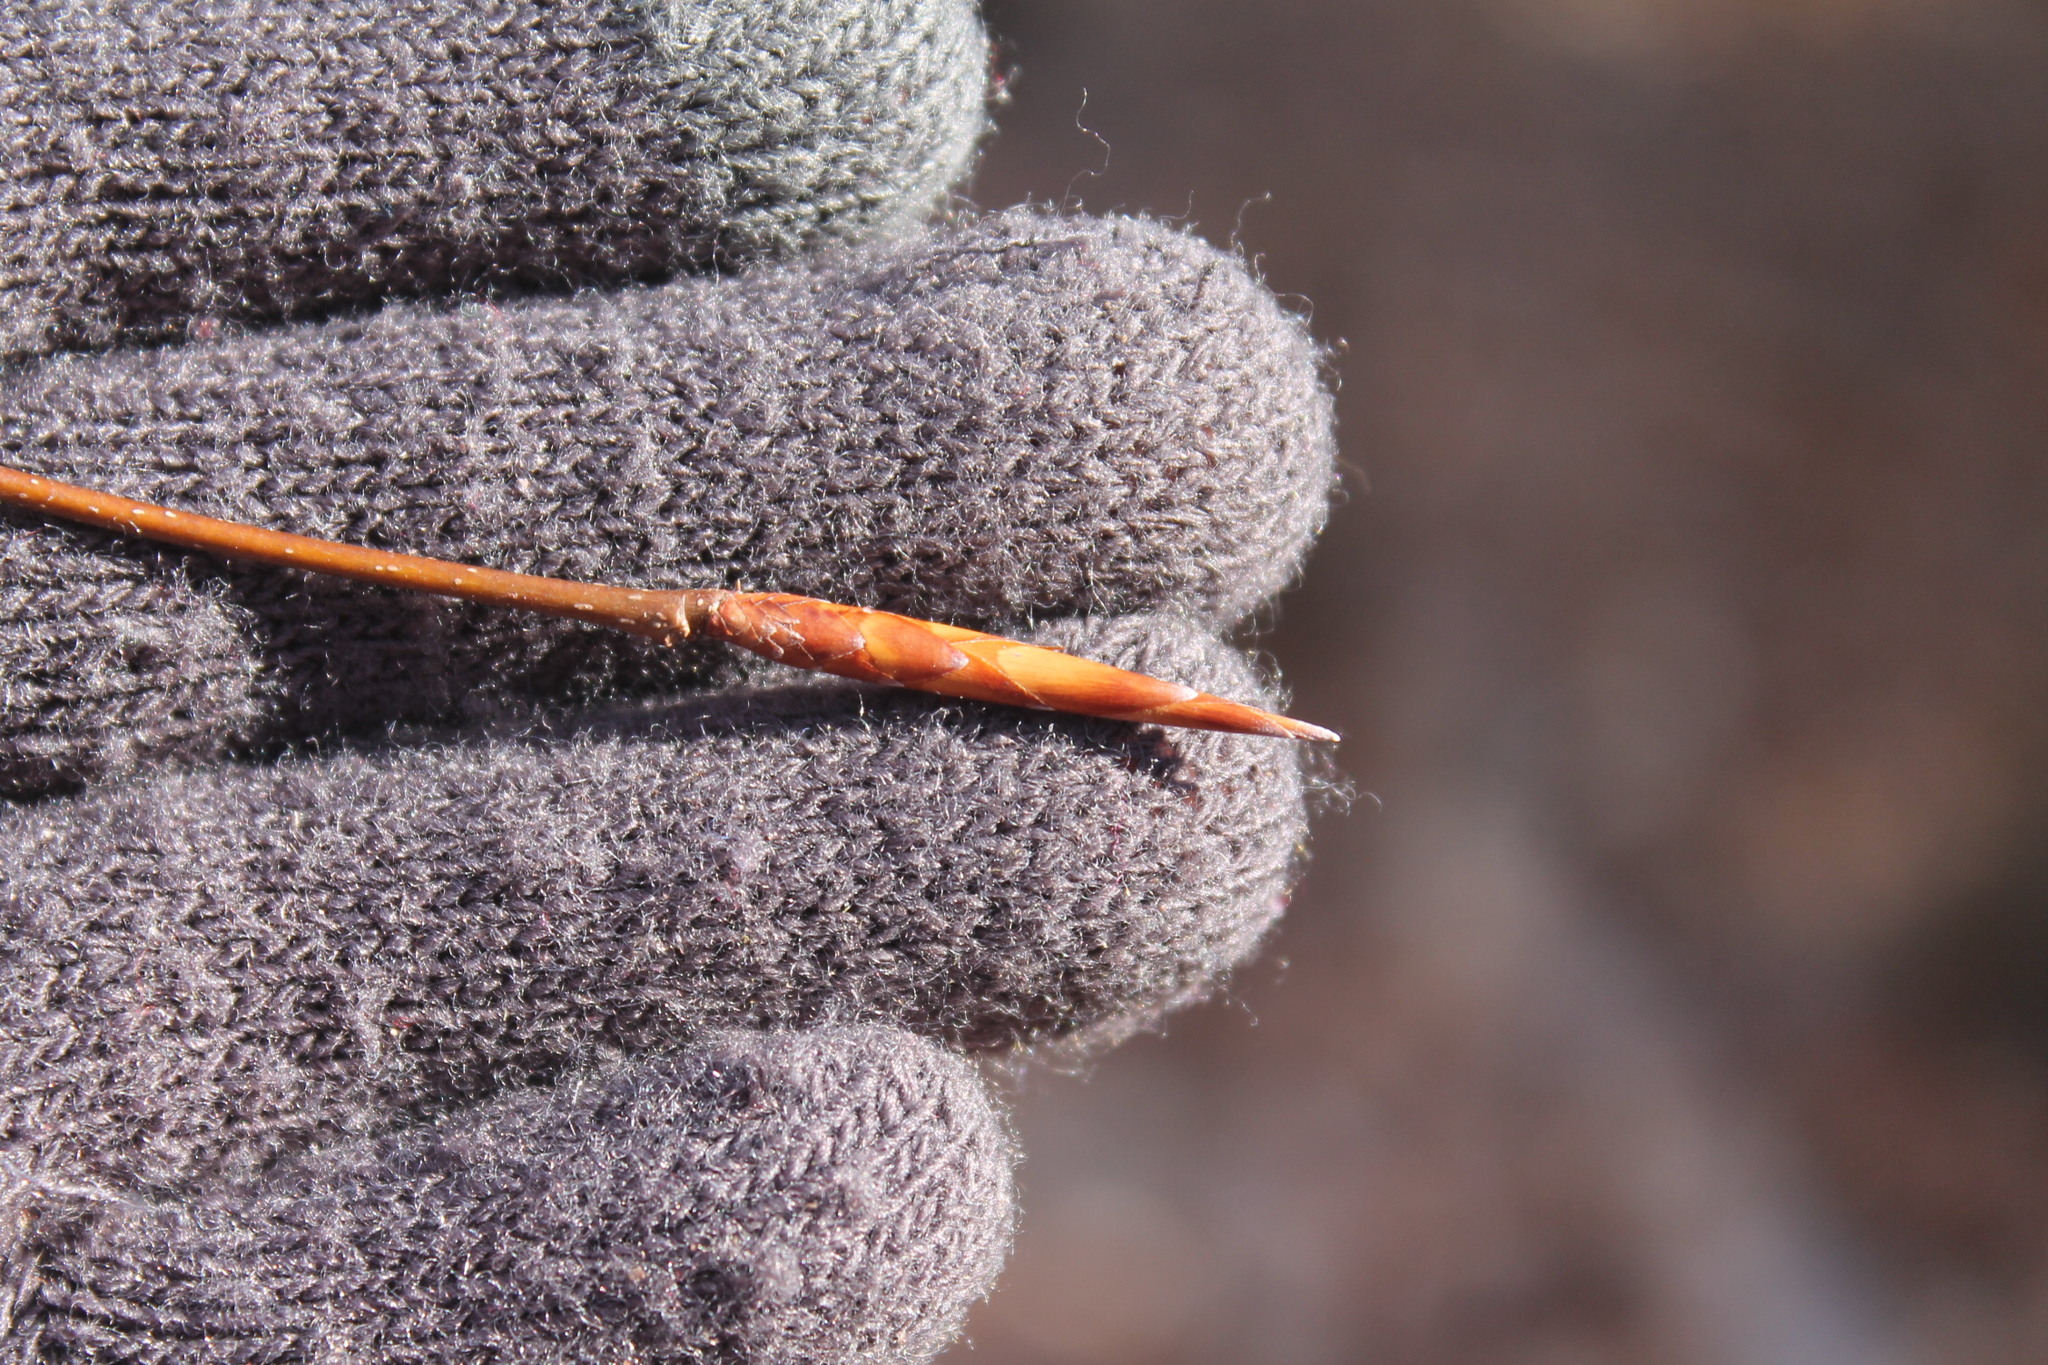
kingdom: Plantae
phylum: Tracheophyta
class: Magnoliopsida
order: Fagales
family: Fagaceae
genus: Fagus
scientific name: Fagus grandifolia
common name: American beech
